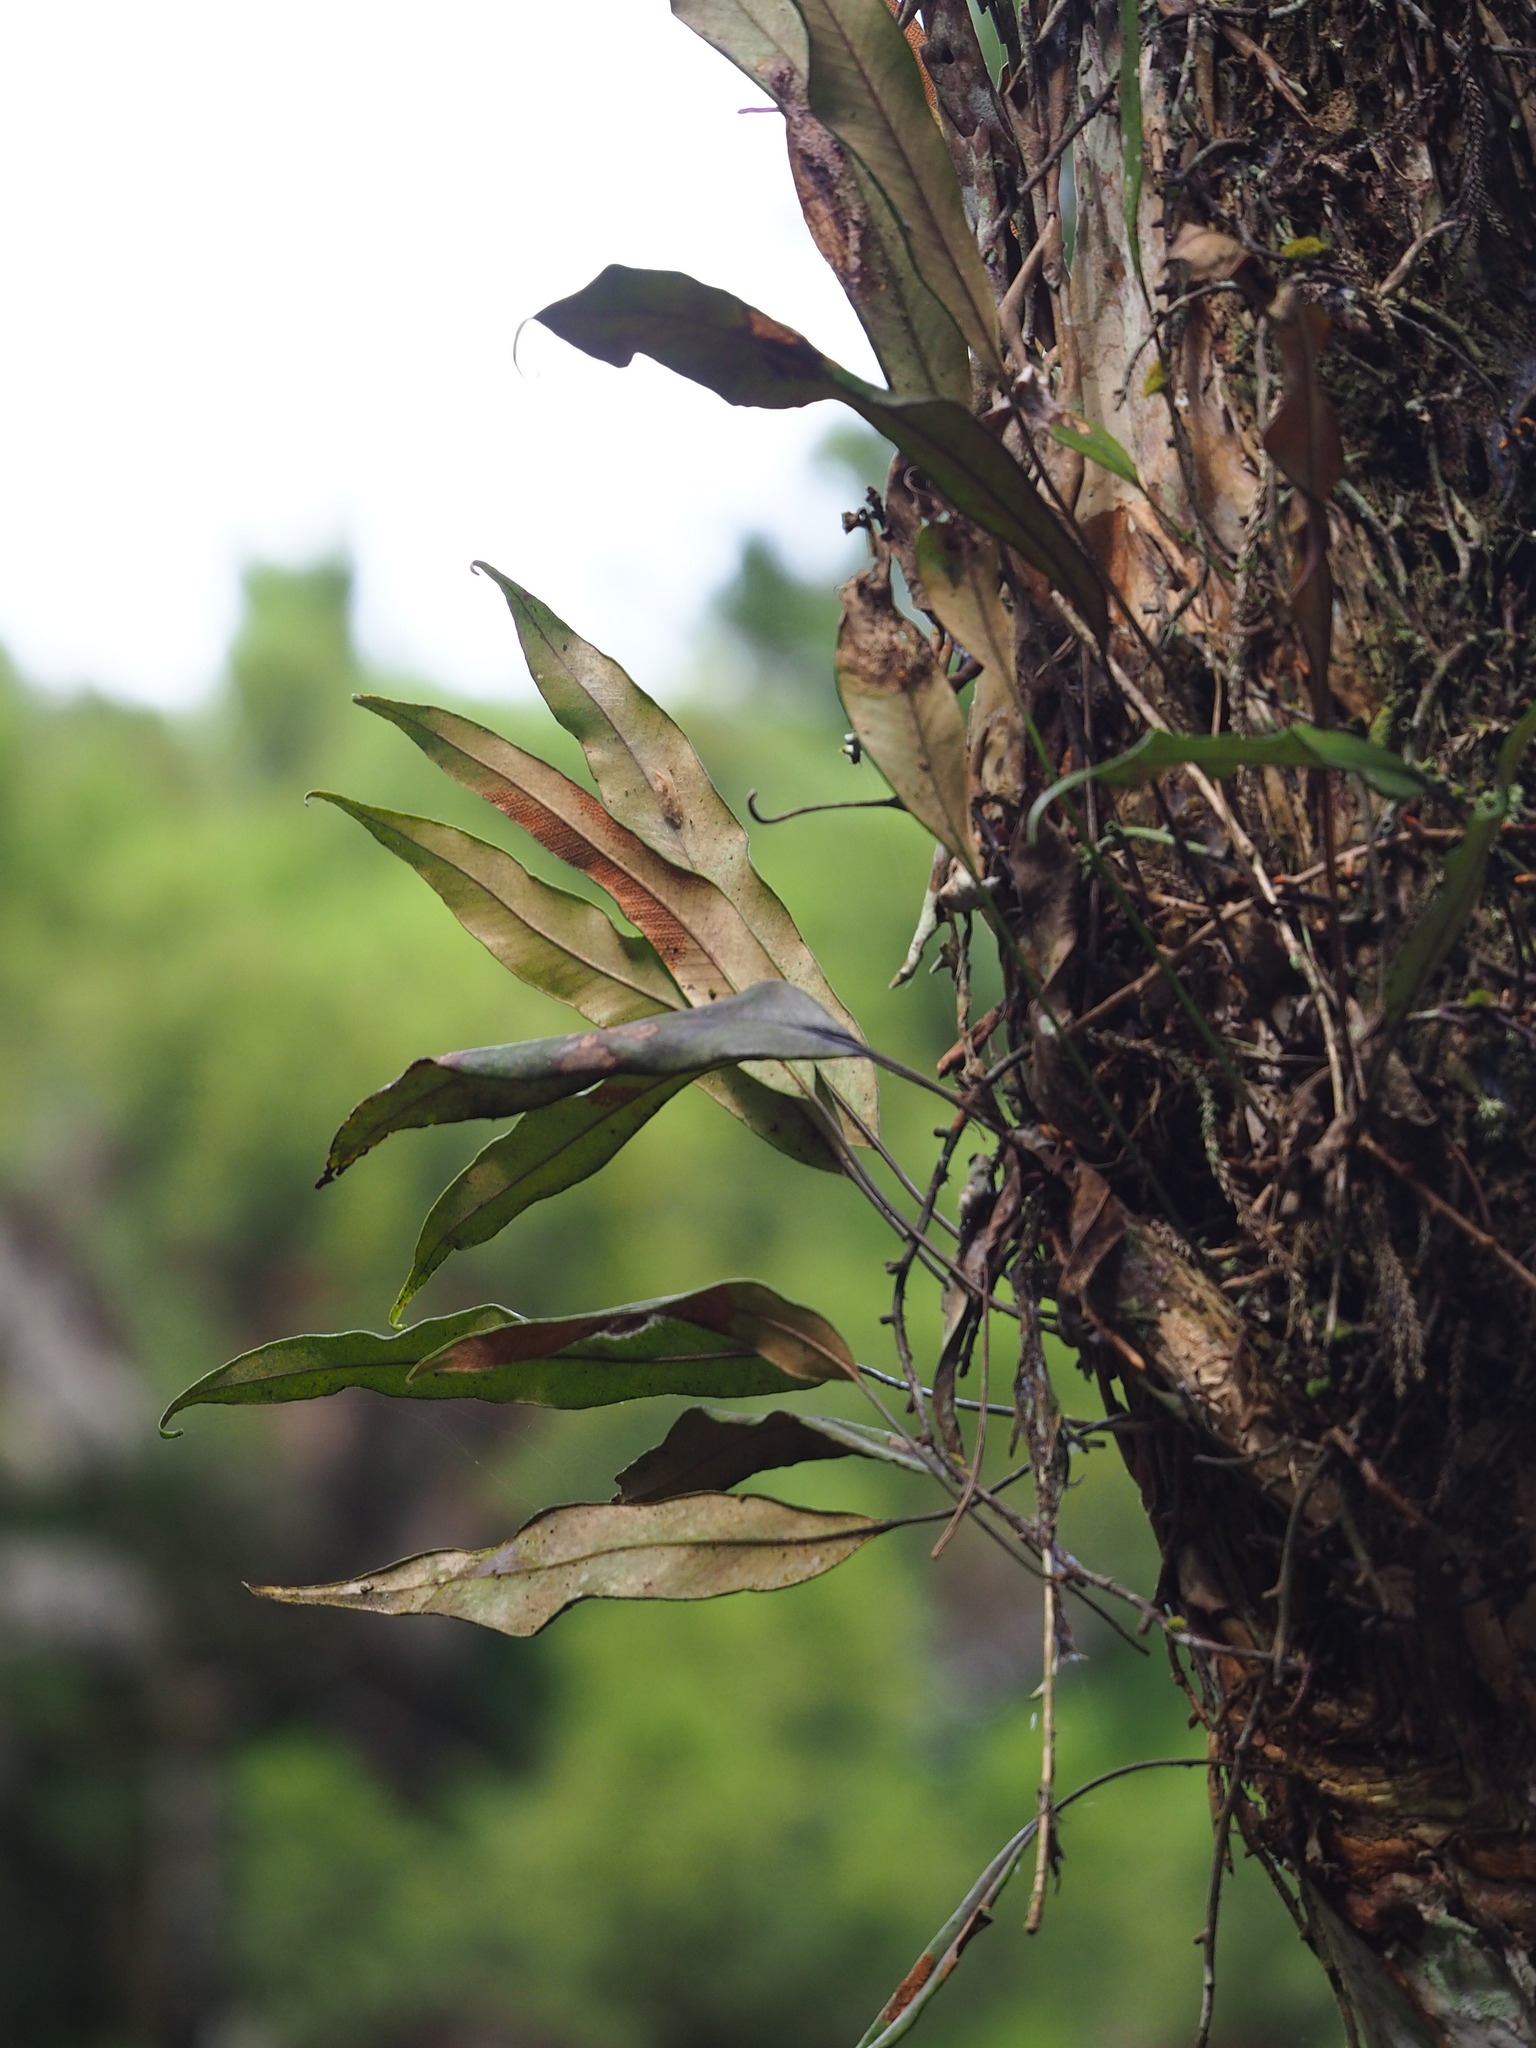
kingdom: Plantae
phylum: Tracheophyta
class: Polypodiopsida
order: Polypodiales
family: Polypodiaceae
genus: Pyrrosia
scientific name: Pyrrosia lingua
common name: Felt fern
